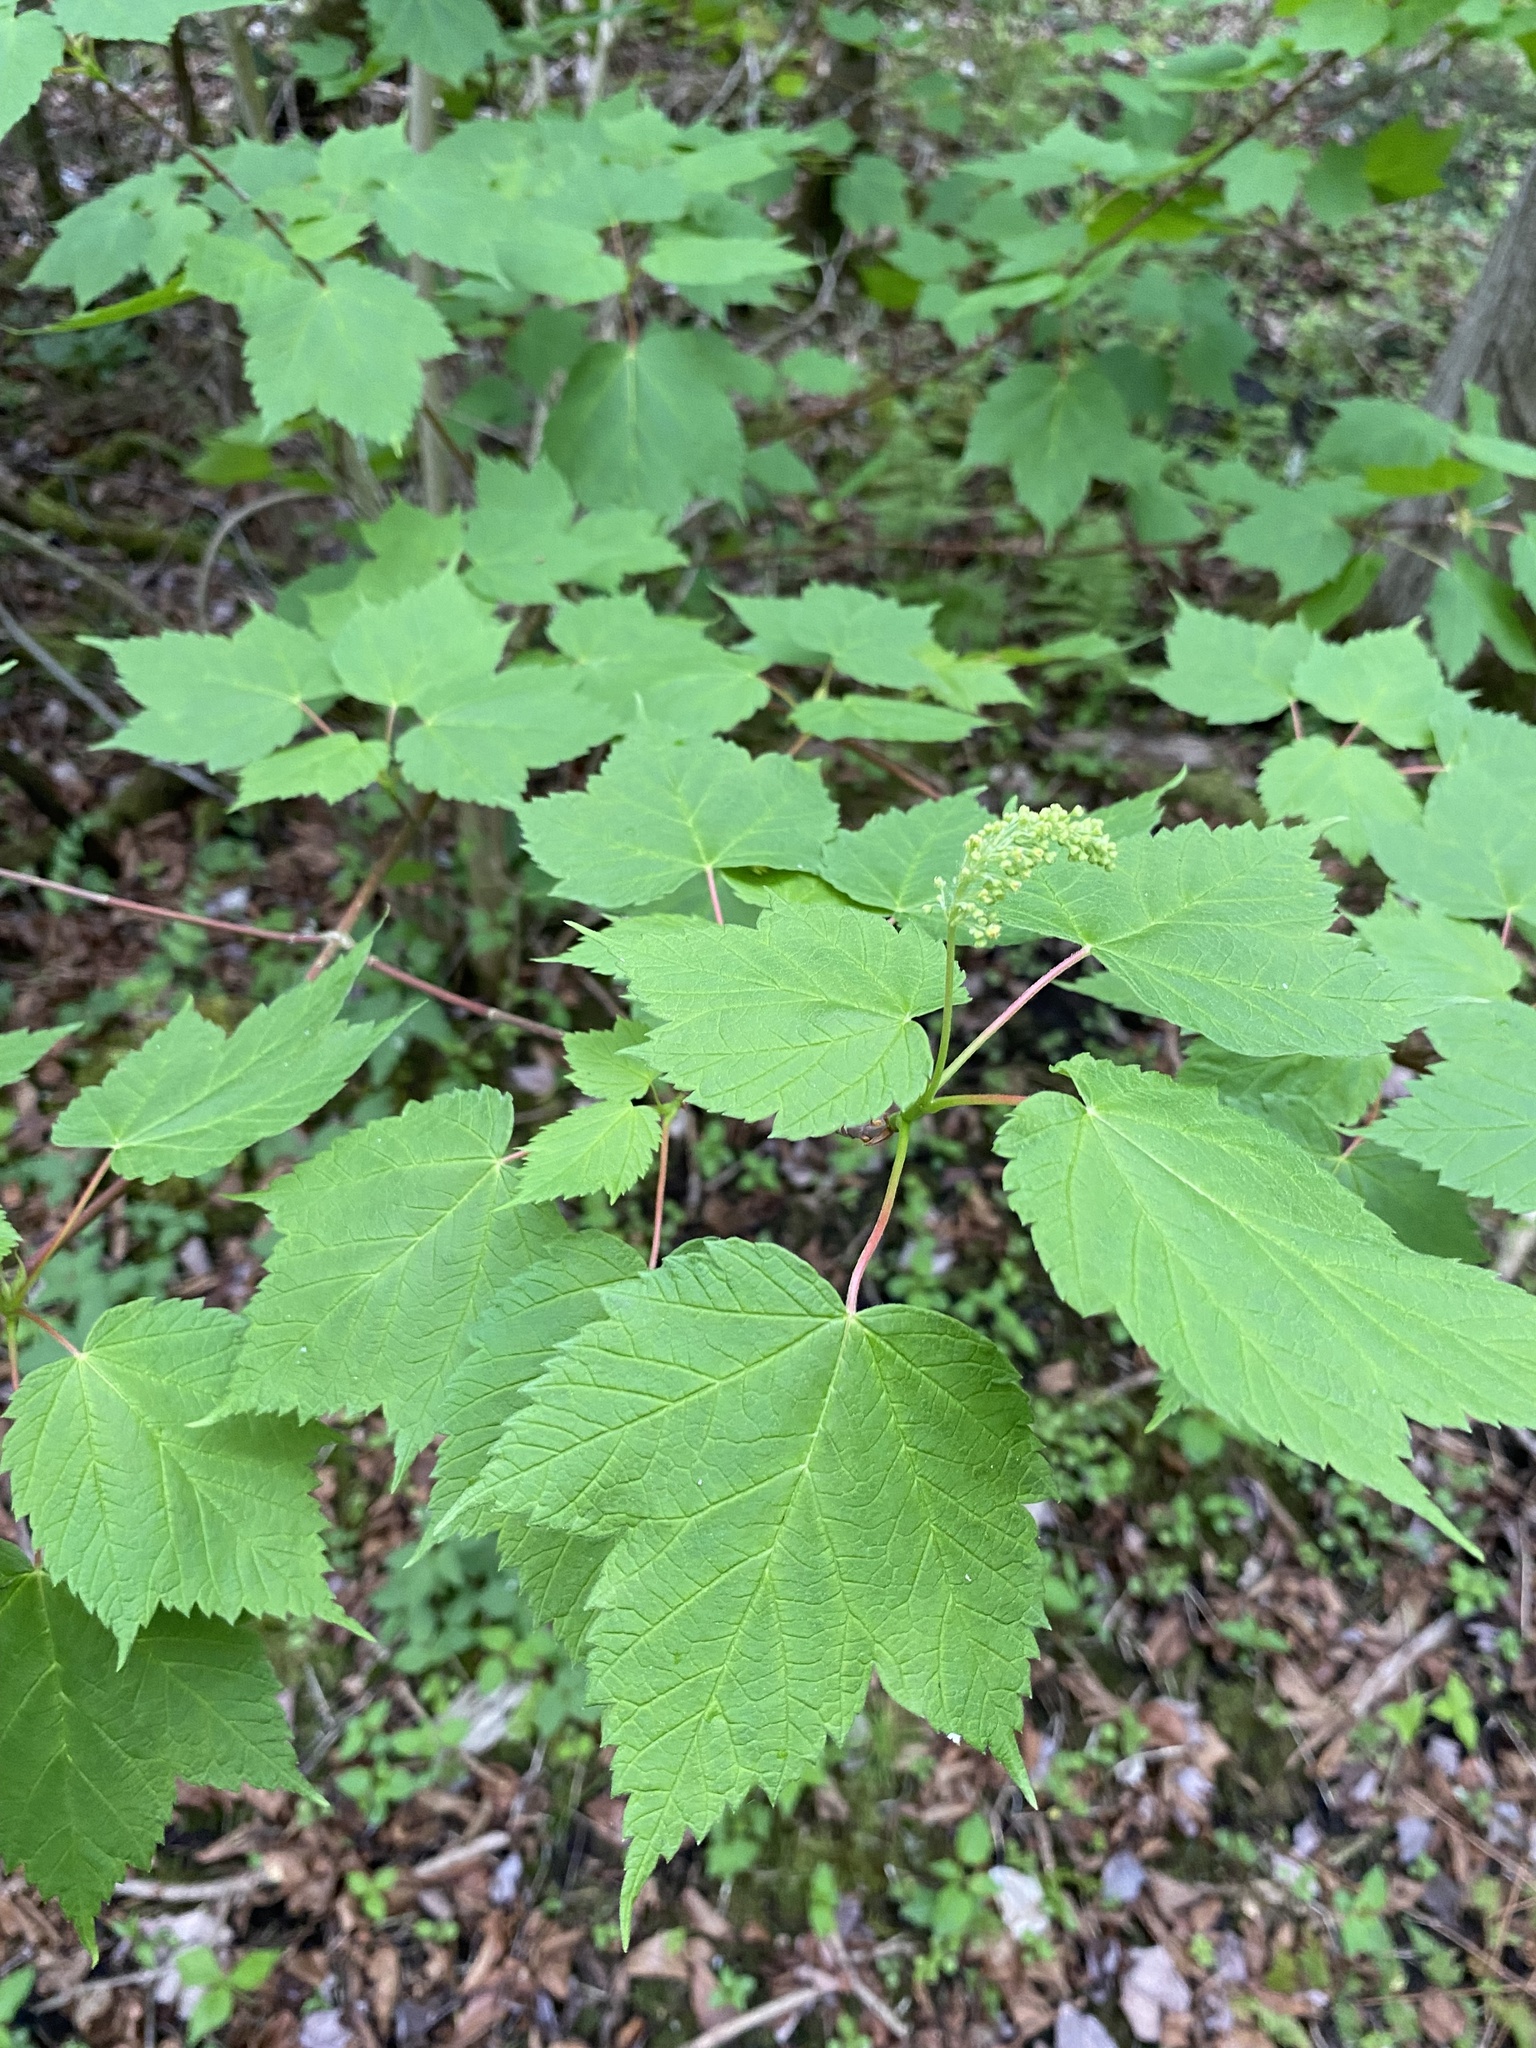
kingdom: Plantae
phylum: Tracheophyta
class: Magnoliopsida
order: Sapindales
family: Sapindaceae
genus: Acer
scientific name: Acer spicatum
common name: Mountain maple
